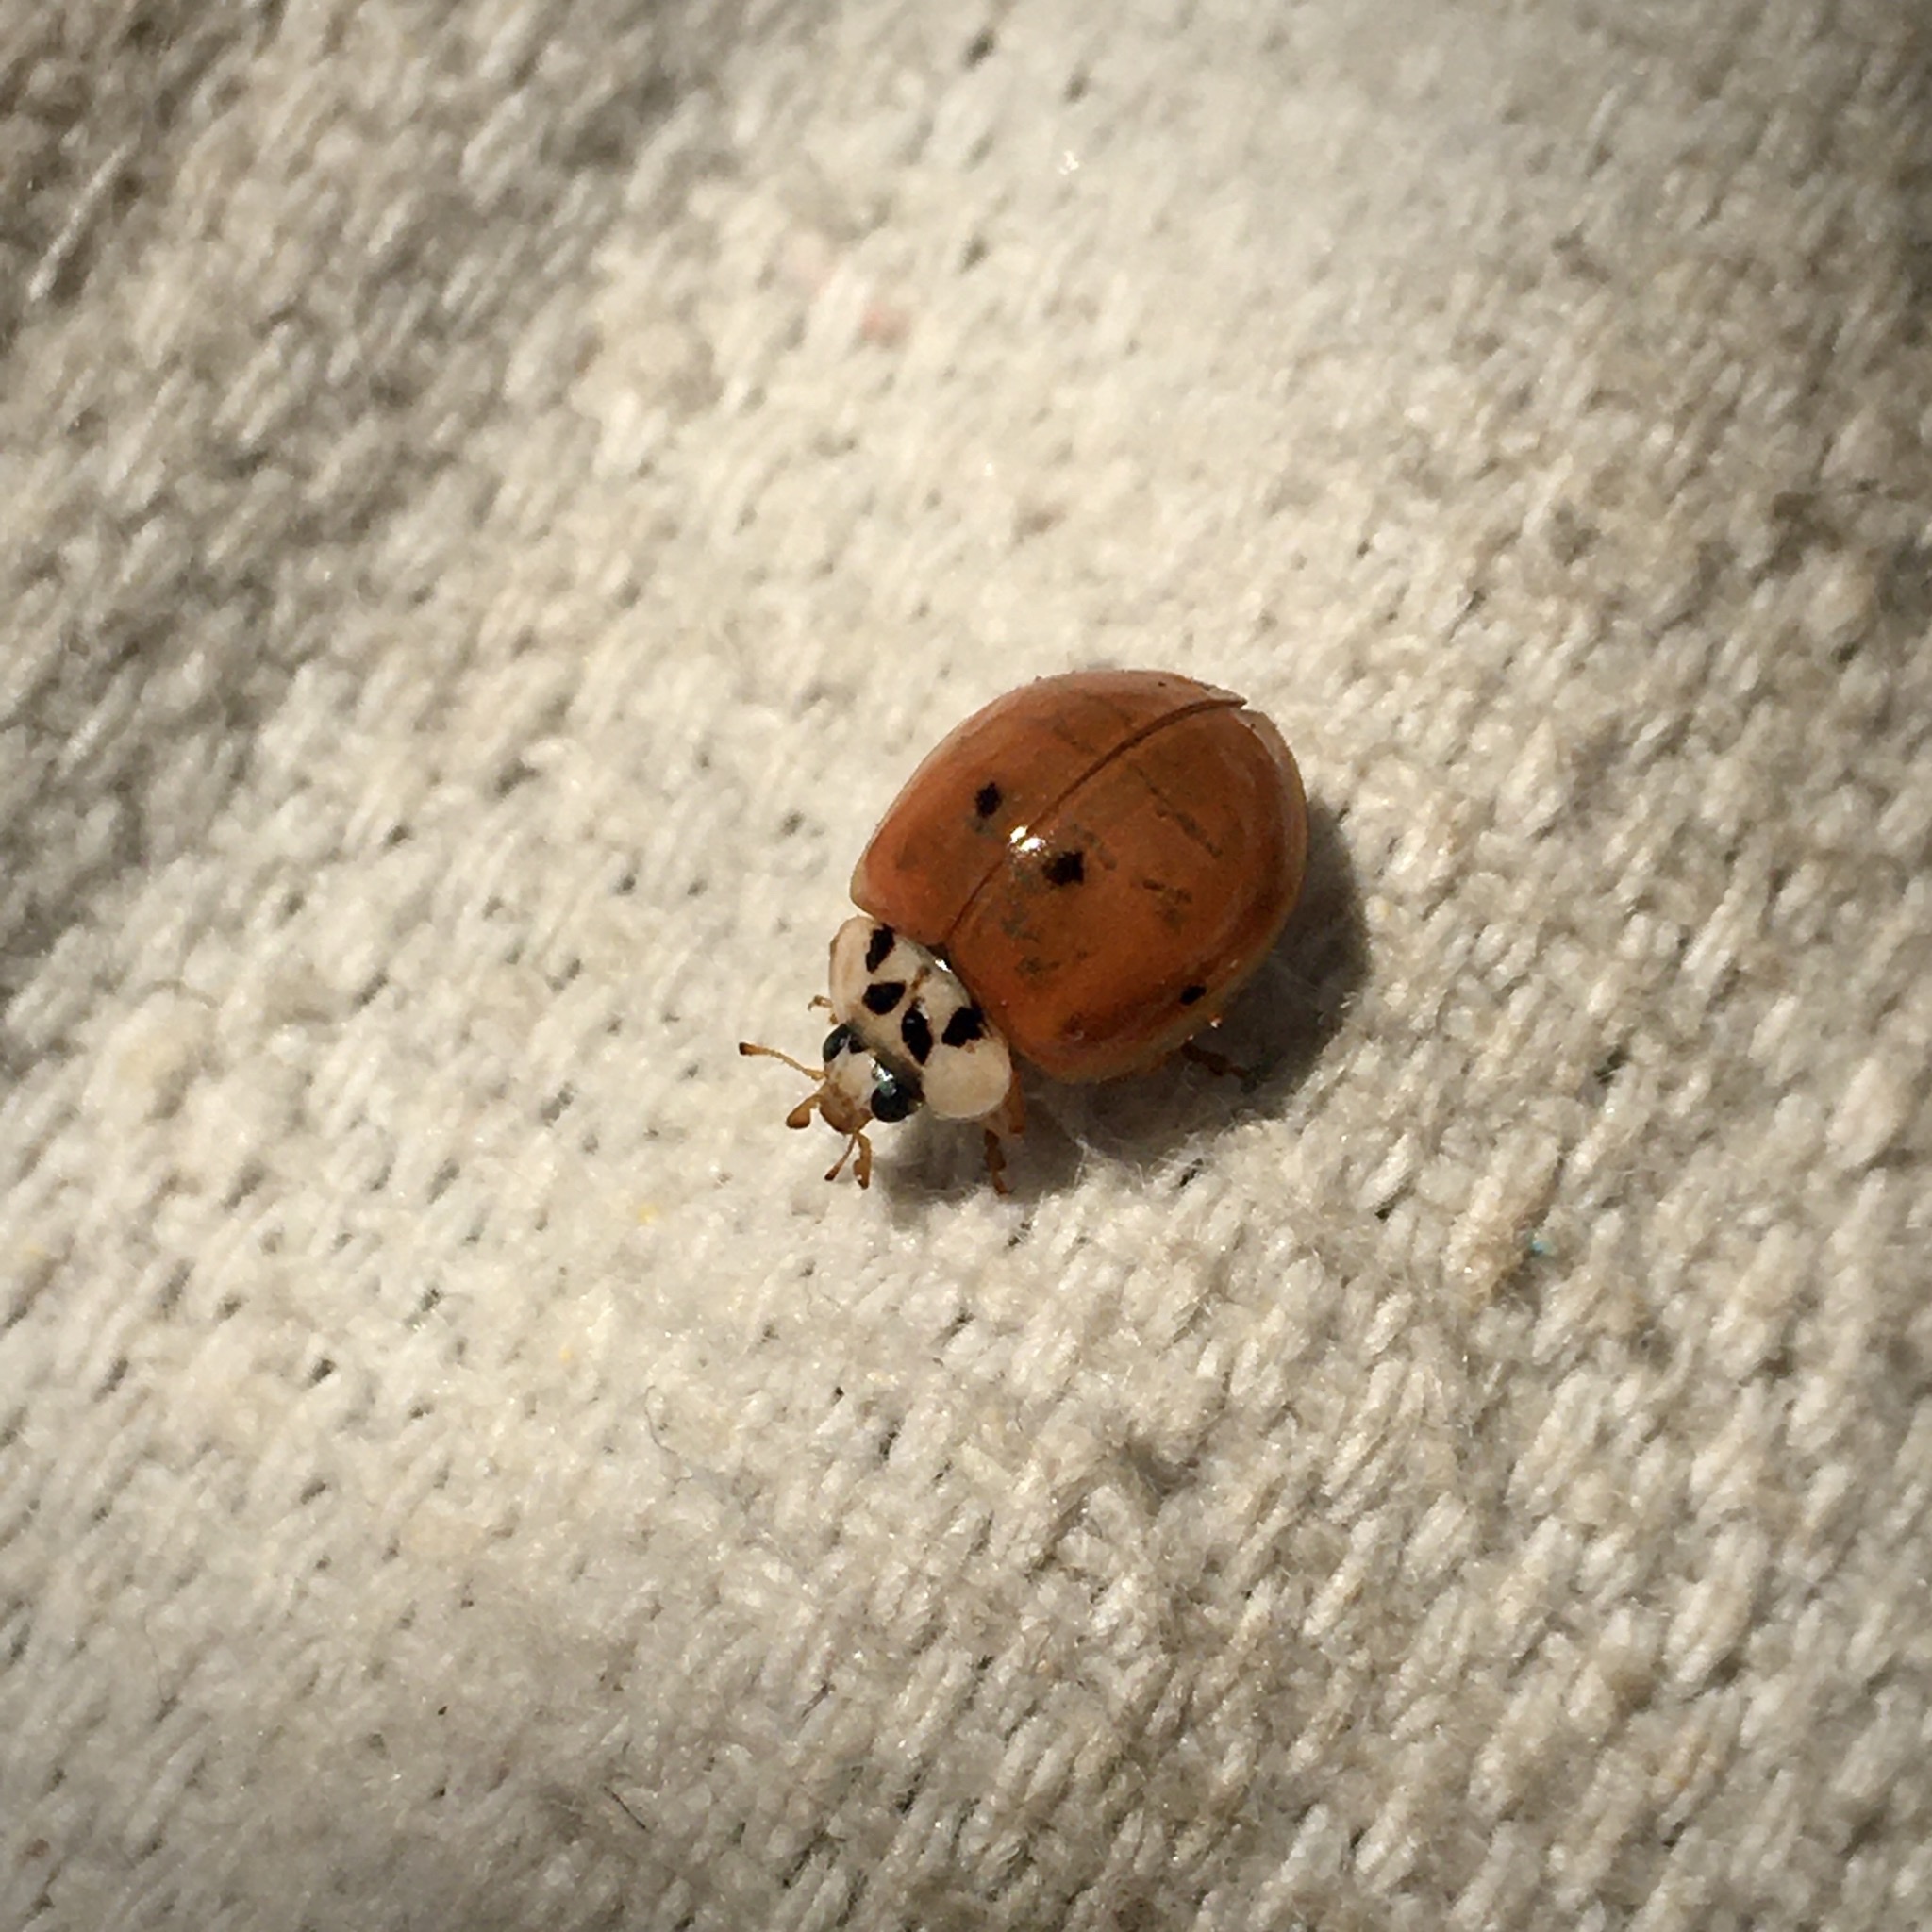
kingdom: Animalia
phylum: Arthropoda
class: Insecta
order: Coleoptera
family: Coccinellidae
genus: Harmonia
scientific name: Harmonia axyridis
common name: Harlequin ladybird
